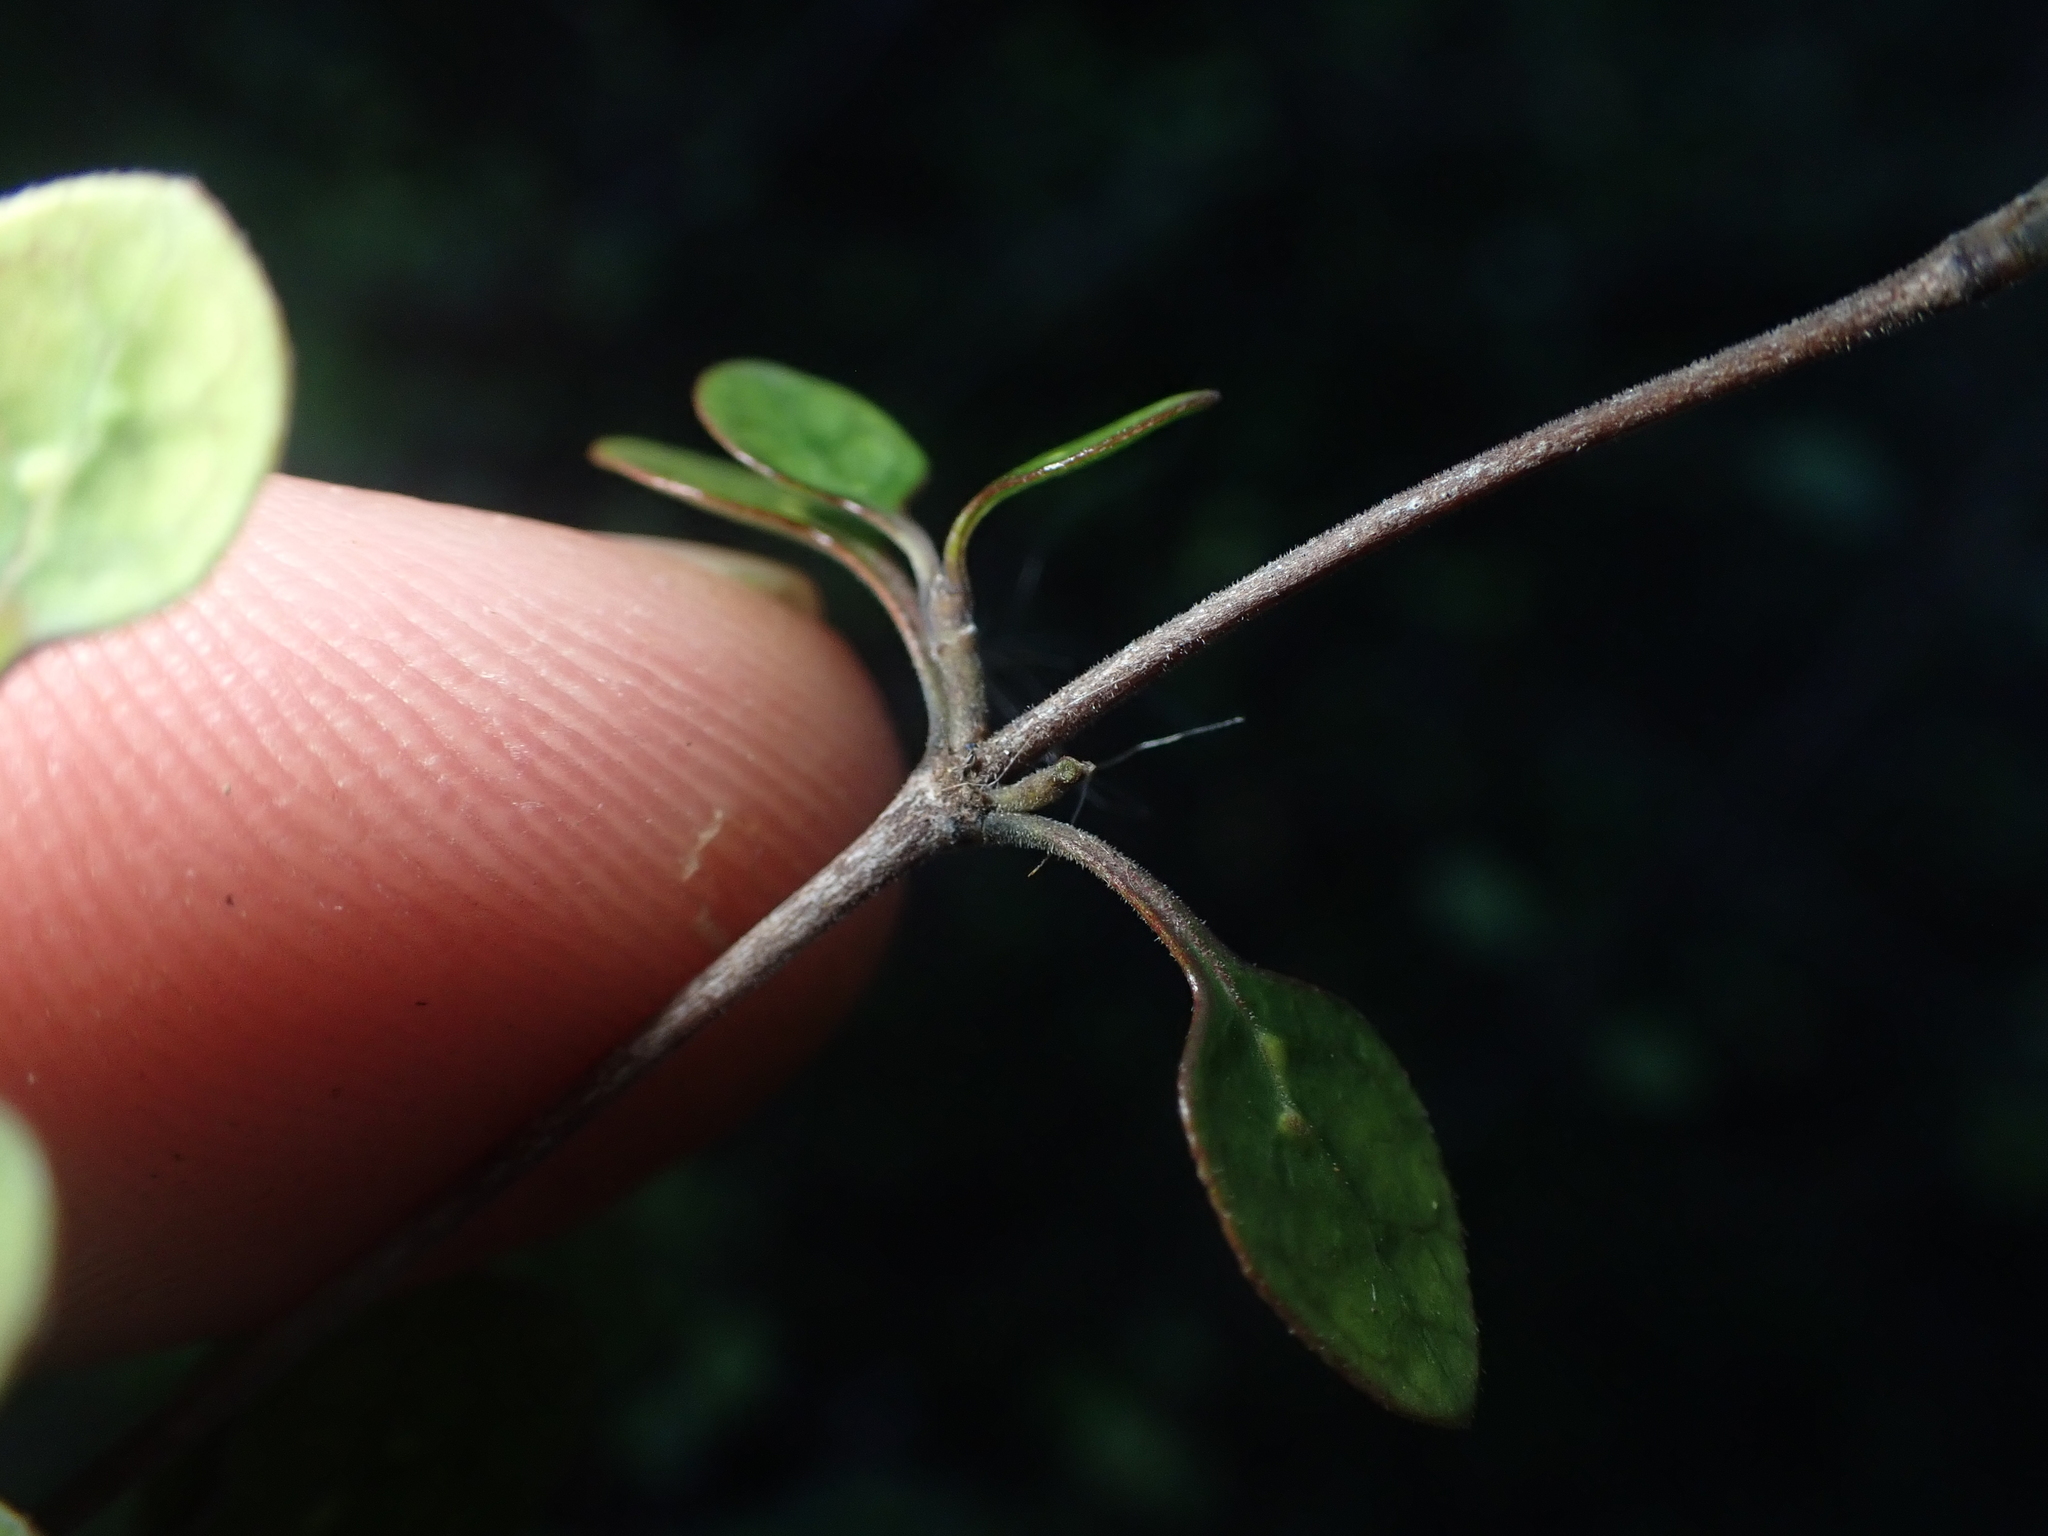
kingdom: Plantae
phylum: Tracheophyta
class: Magnoliopsida
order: Gentianales
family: Rubiaceae
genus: Coprosma
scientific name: Coprosma tenuicaulis
